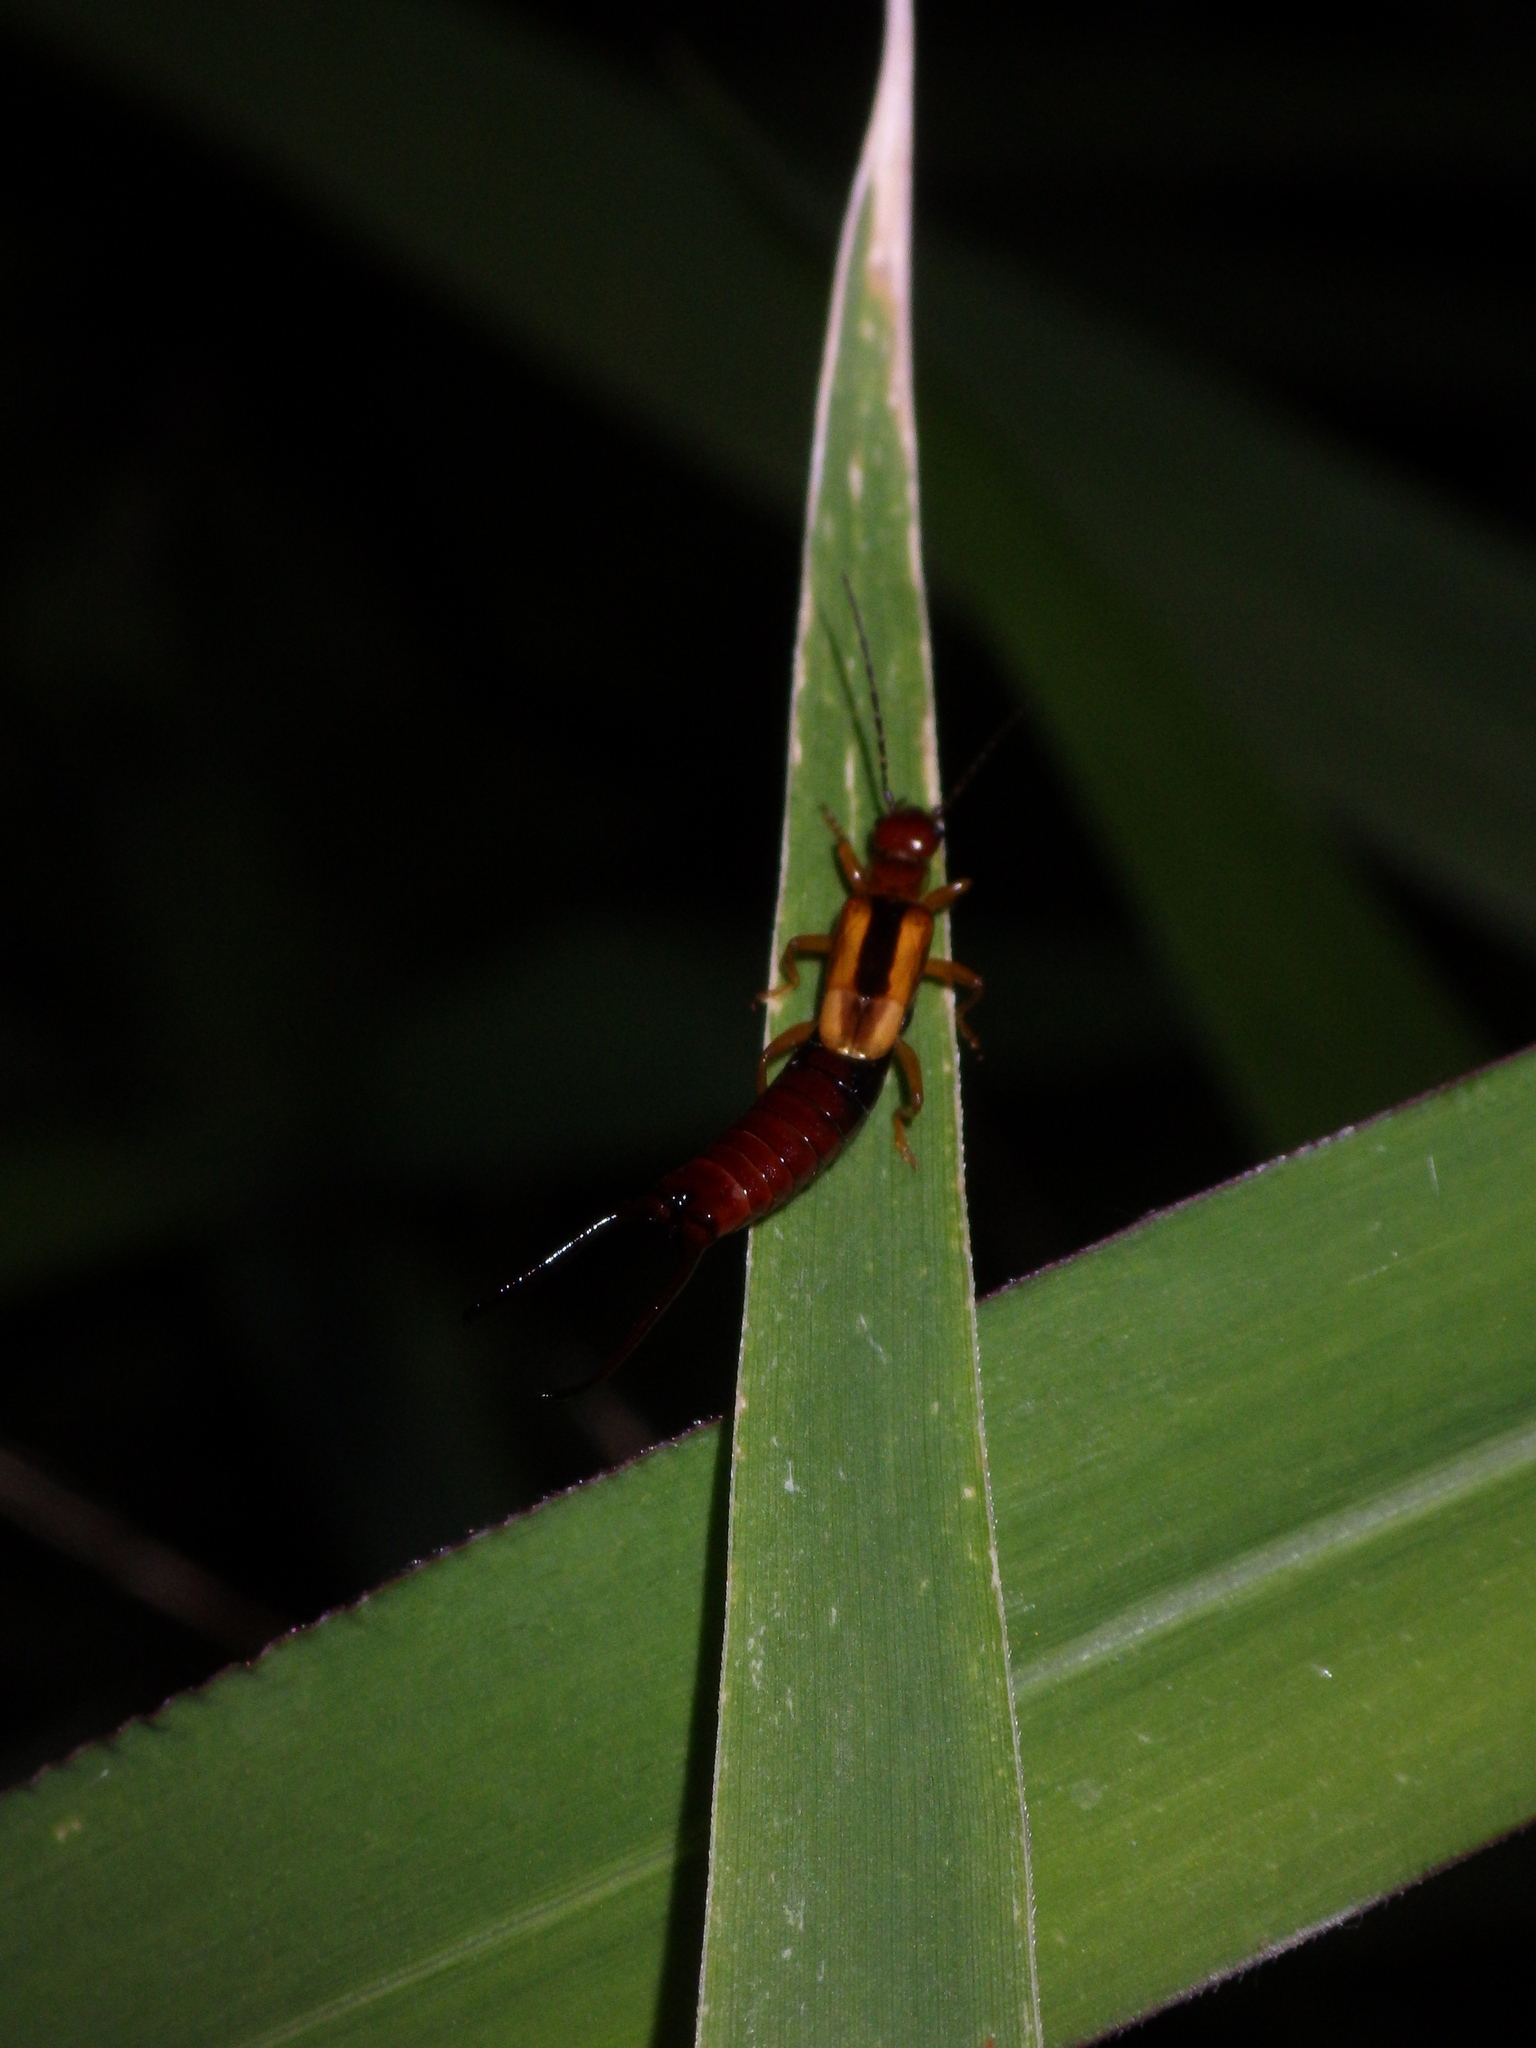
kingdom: Animalia
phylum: Arthropoda
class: Insecta
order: Dermaptera
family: Forficulidae
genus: Elaunon
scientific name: Elaunon bipartitus
